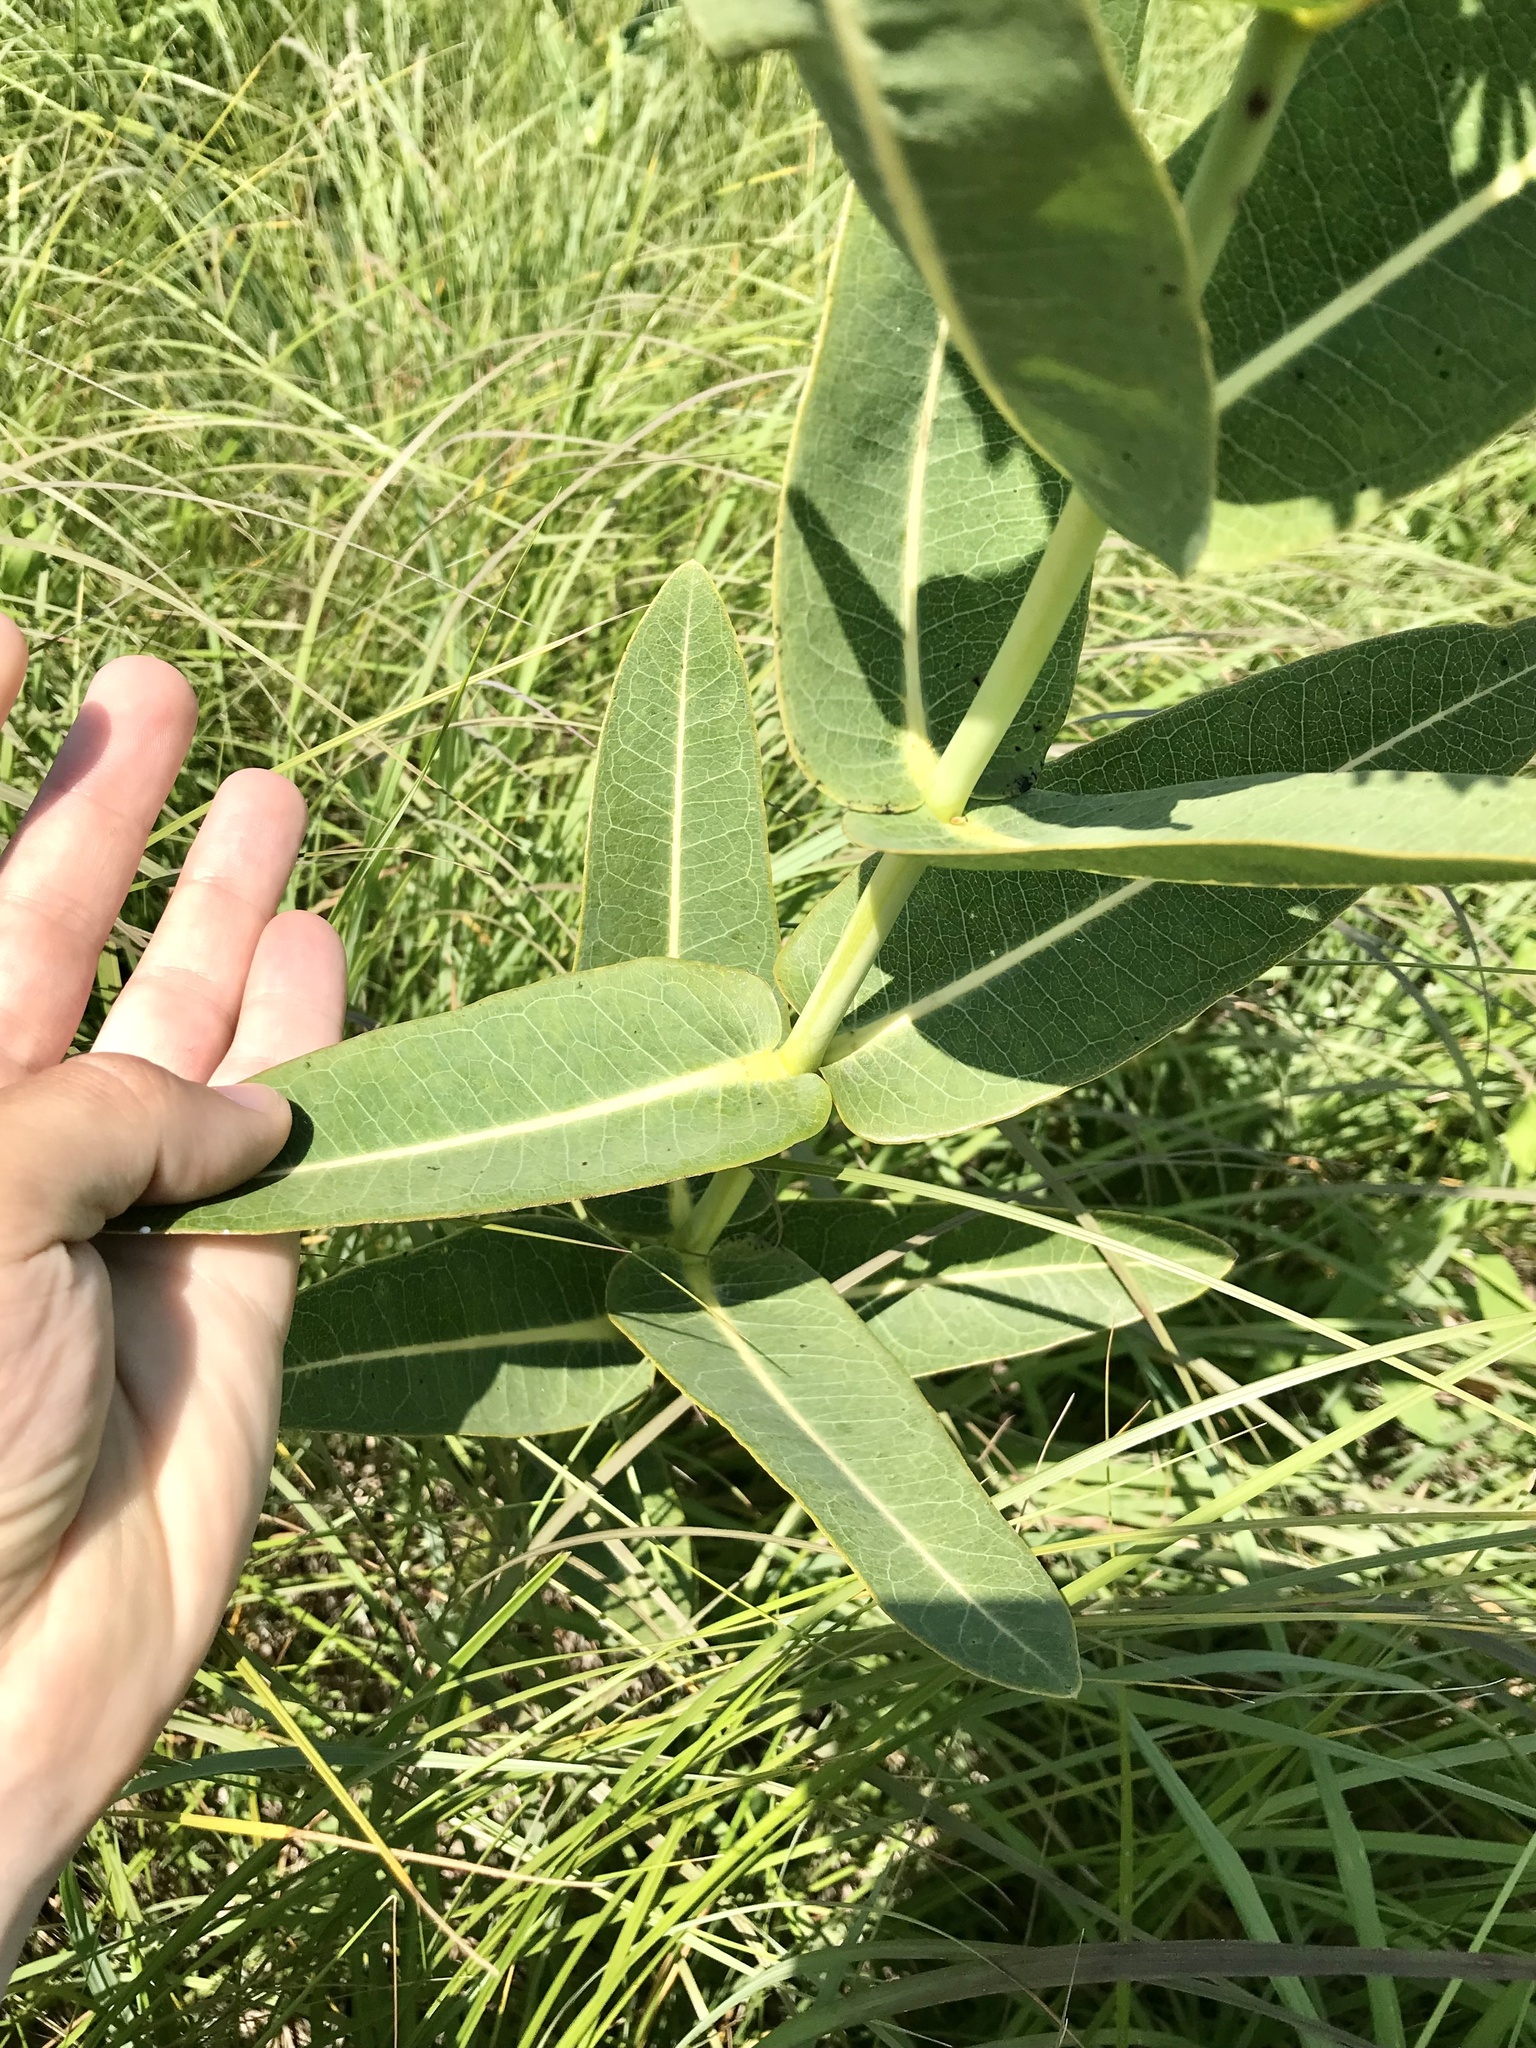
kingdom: Plantae
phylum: Tracheophyta
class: Magnoliopsida
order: Gentianales
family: Apocynaceae
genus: Asclepias
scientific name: Asclepias sullivantii
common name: Prairie milkweed
